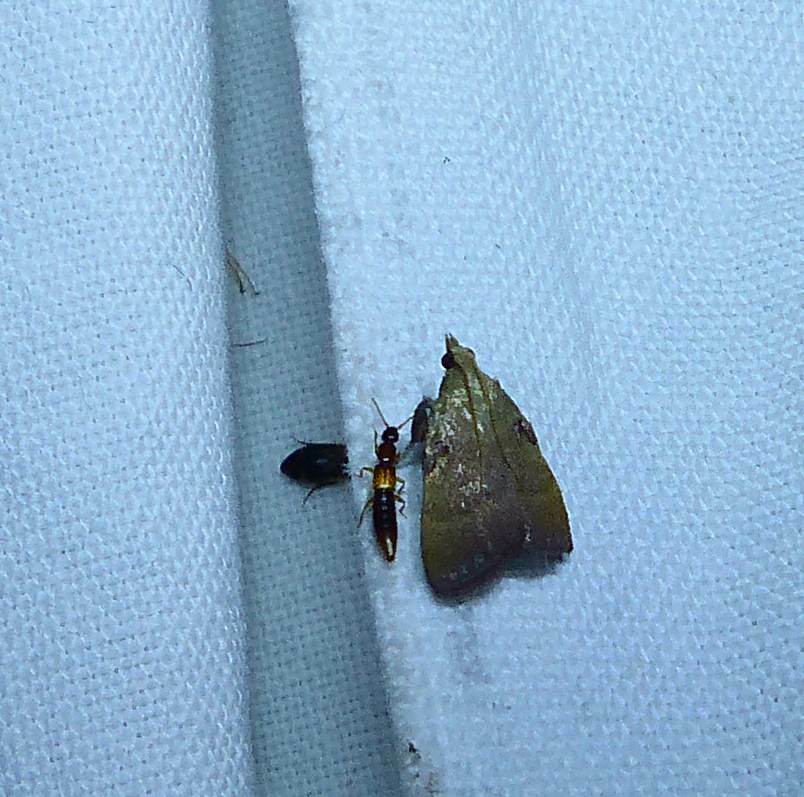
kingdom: Animalia
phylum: Arthropoda
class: Insecta
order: Lepidoptera
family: Pyralidae
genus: Condylolomia
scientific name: Condylolomia participialis
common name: Drab condylolomia moth
